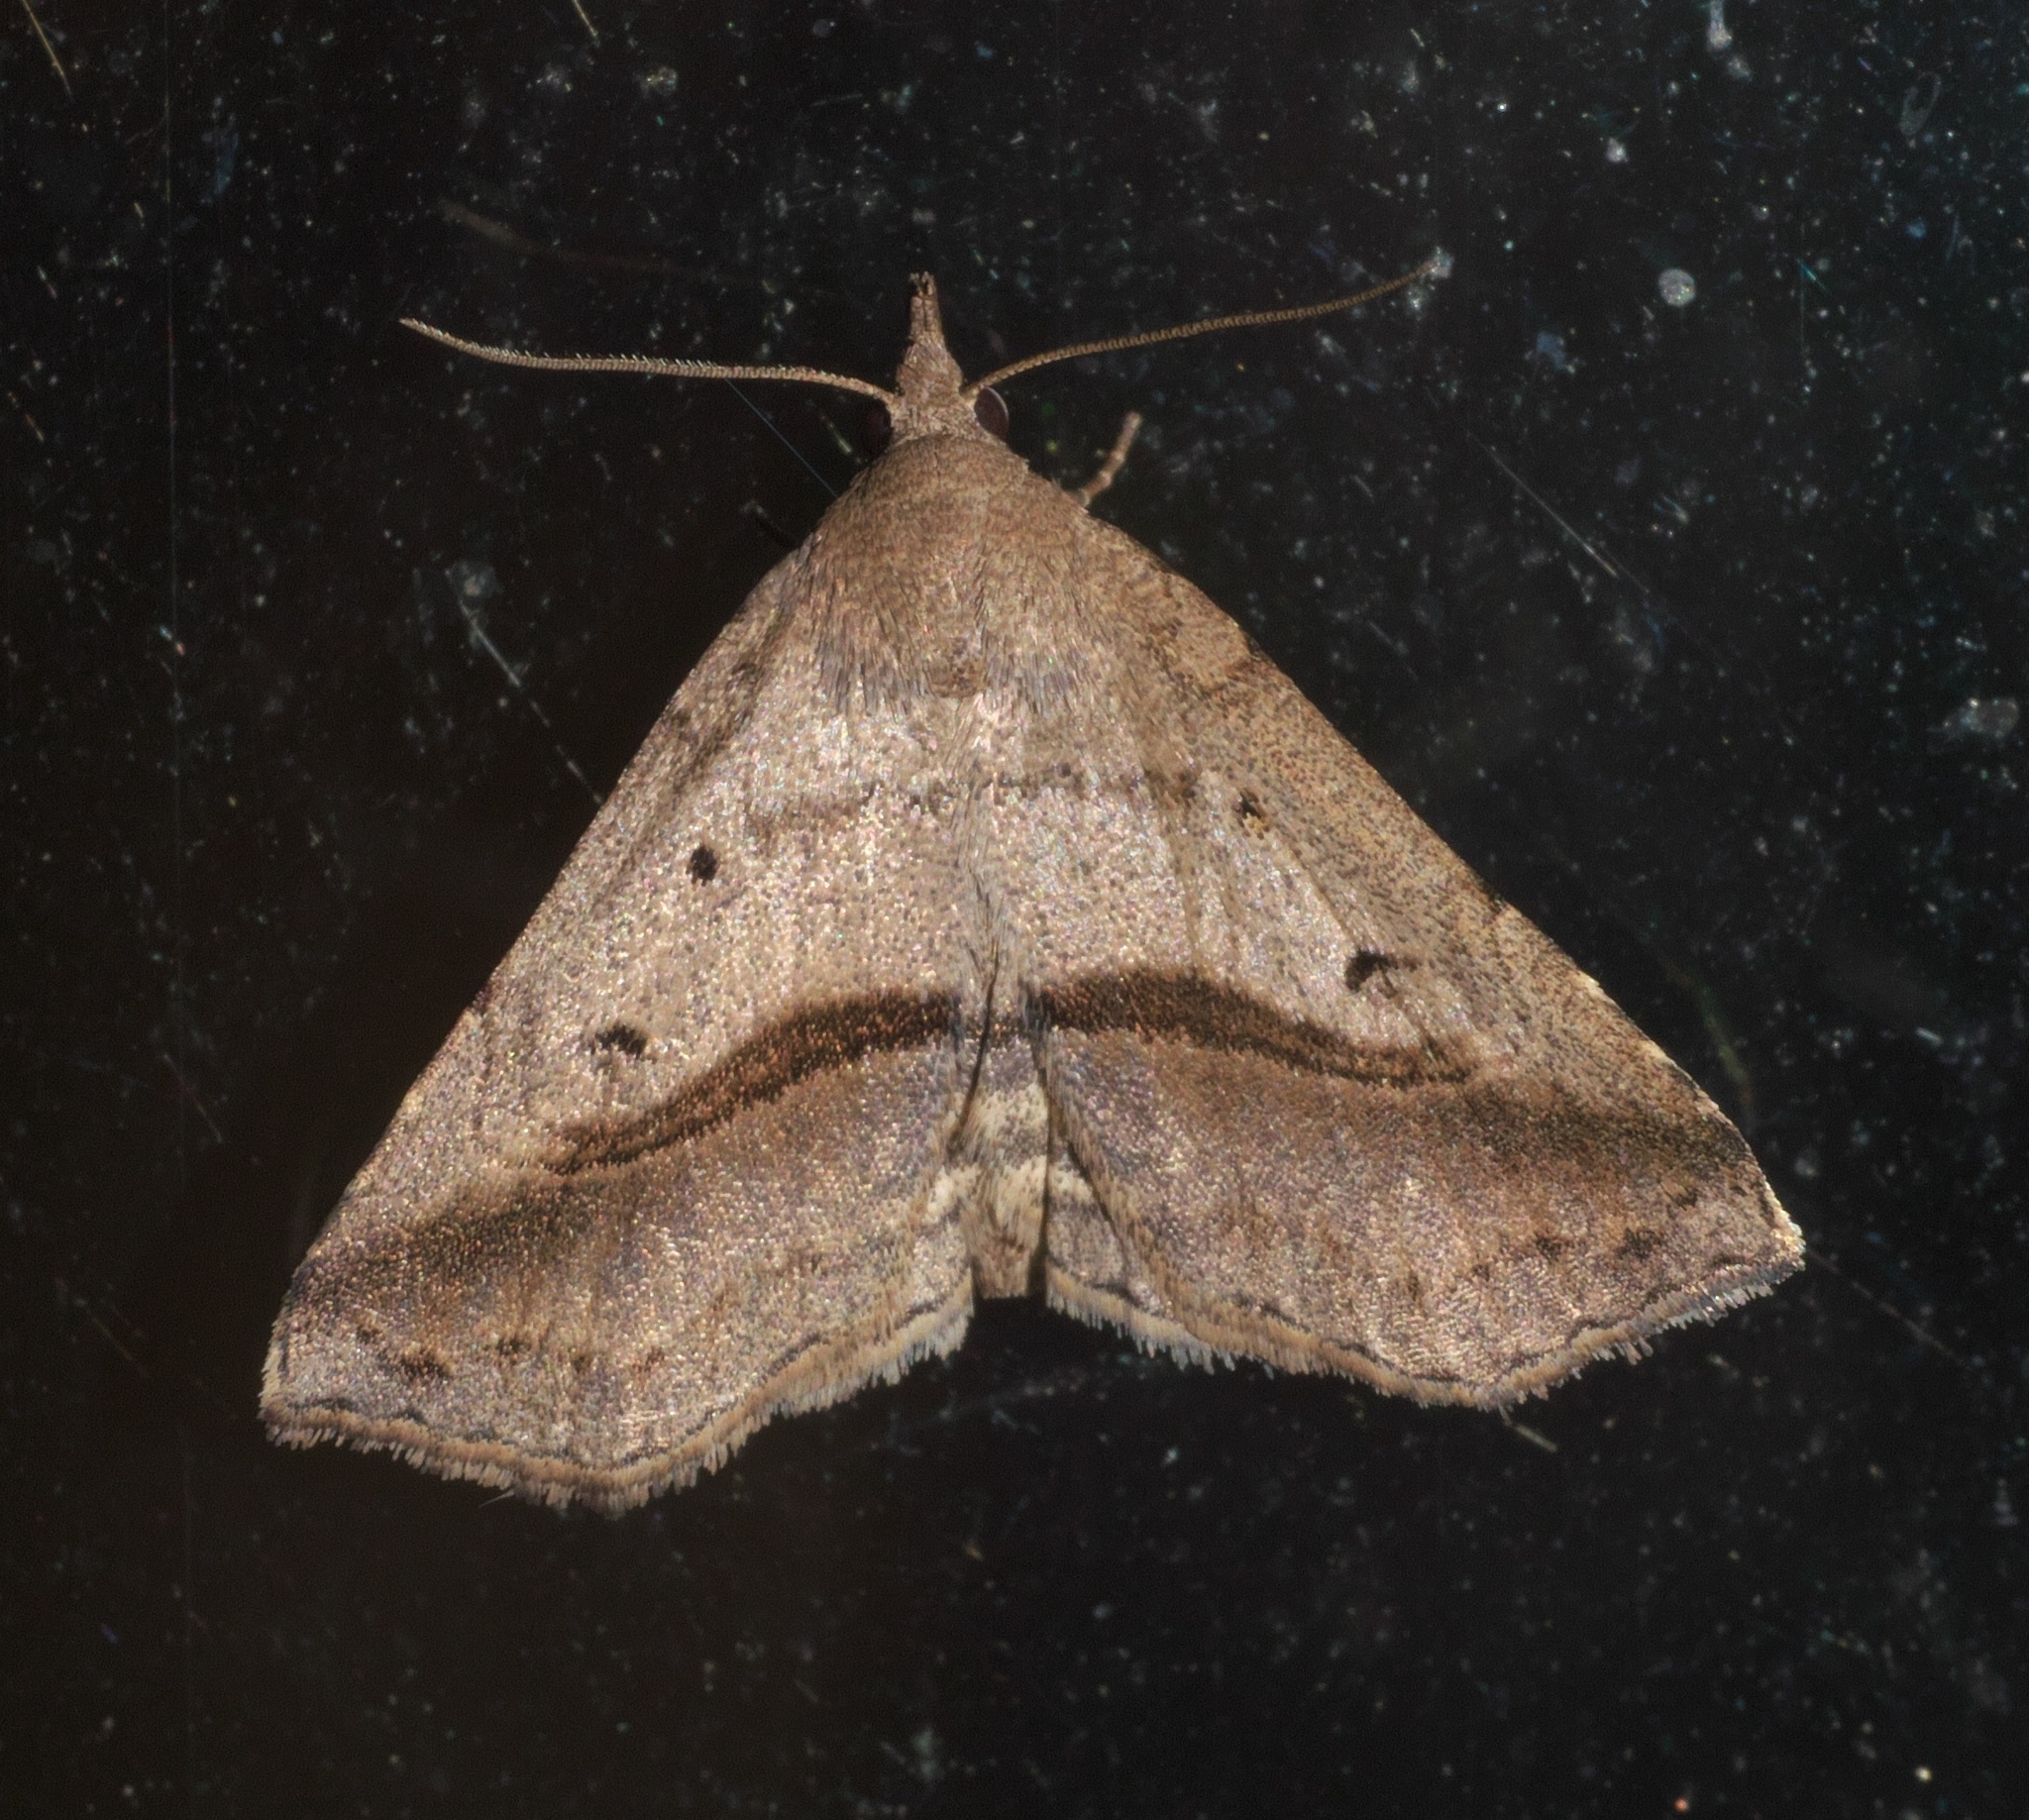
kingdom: Animalia
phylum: Arthropoda
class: Insecta
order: Lepidoptera
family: Erebidae
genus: Spargaloma
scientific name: Spargaloma perditalis
